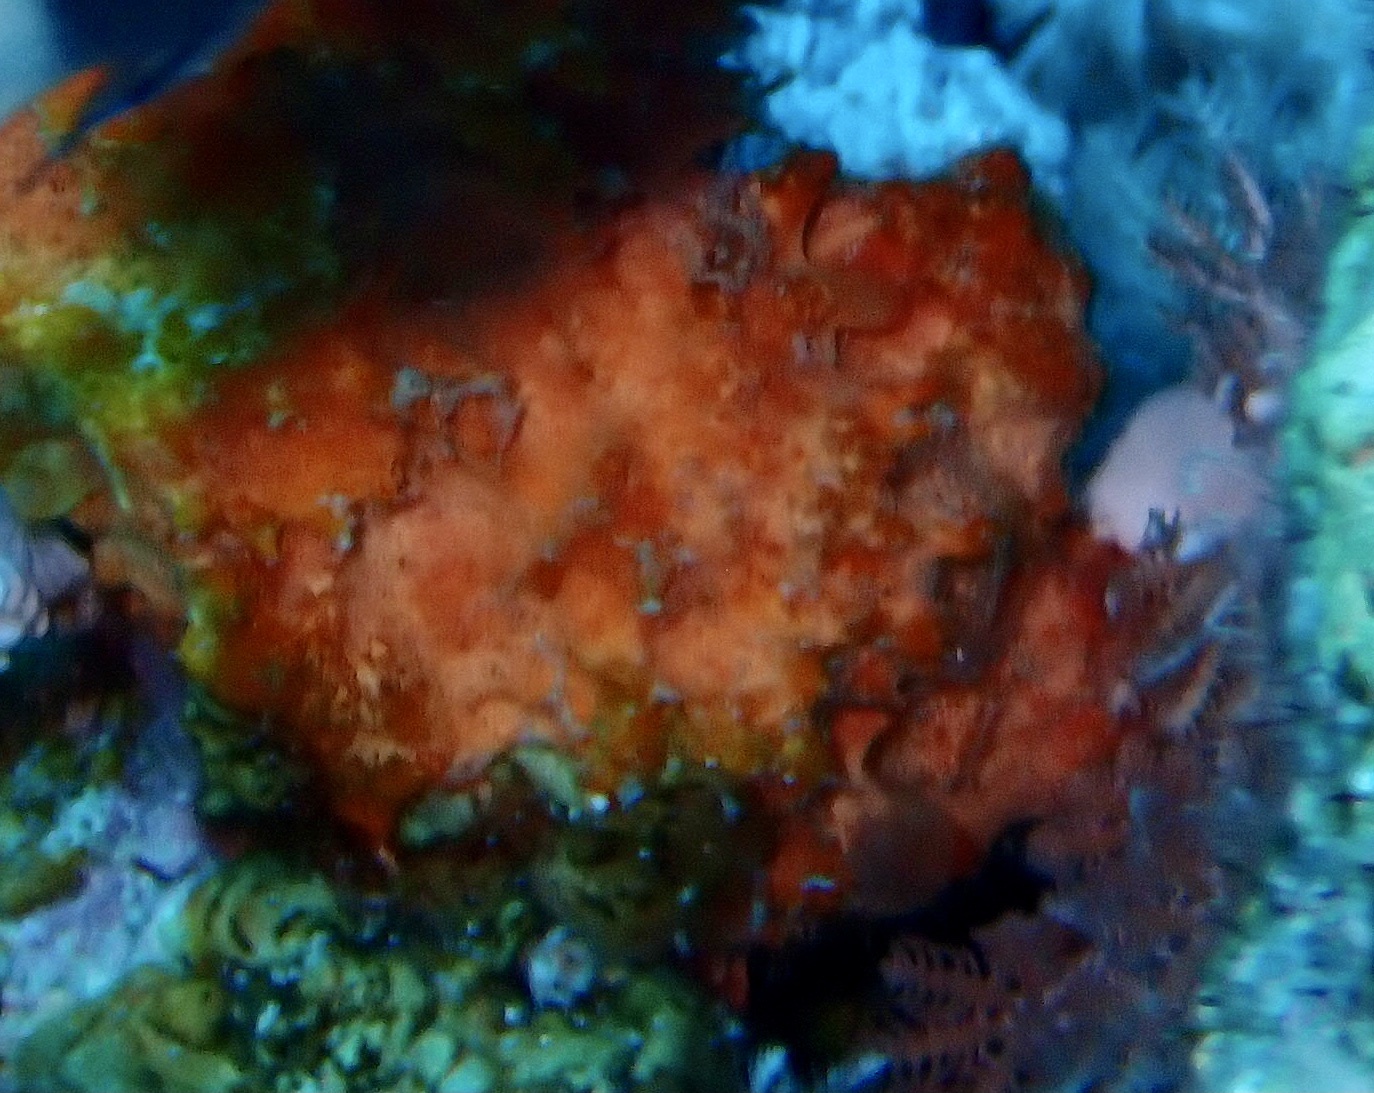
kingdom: Animalia
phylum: Porifera
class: Demospongiae
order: Scopalinida
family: Scopalinidae
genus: Stylissa
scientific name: Stylissa carteri
